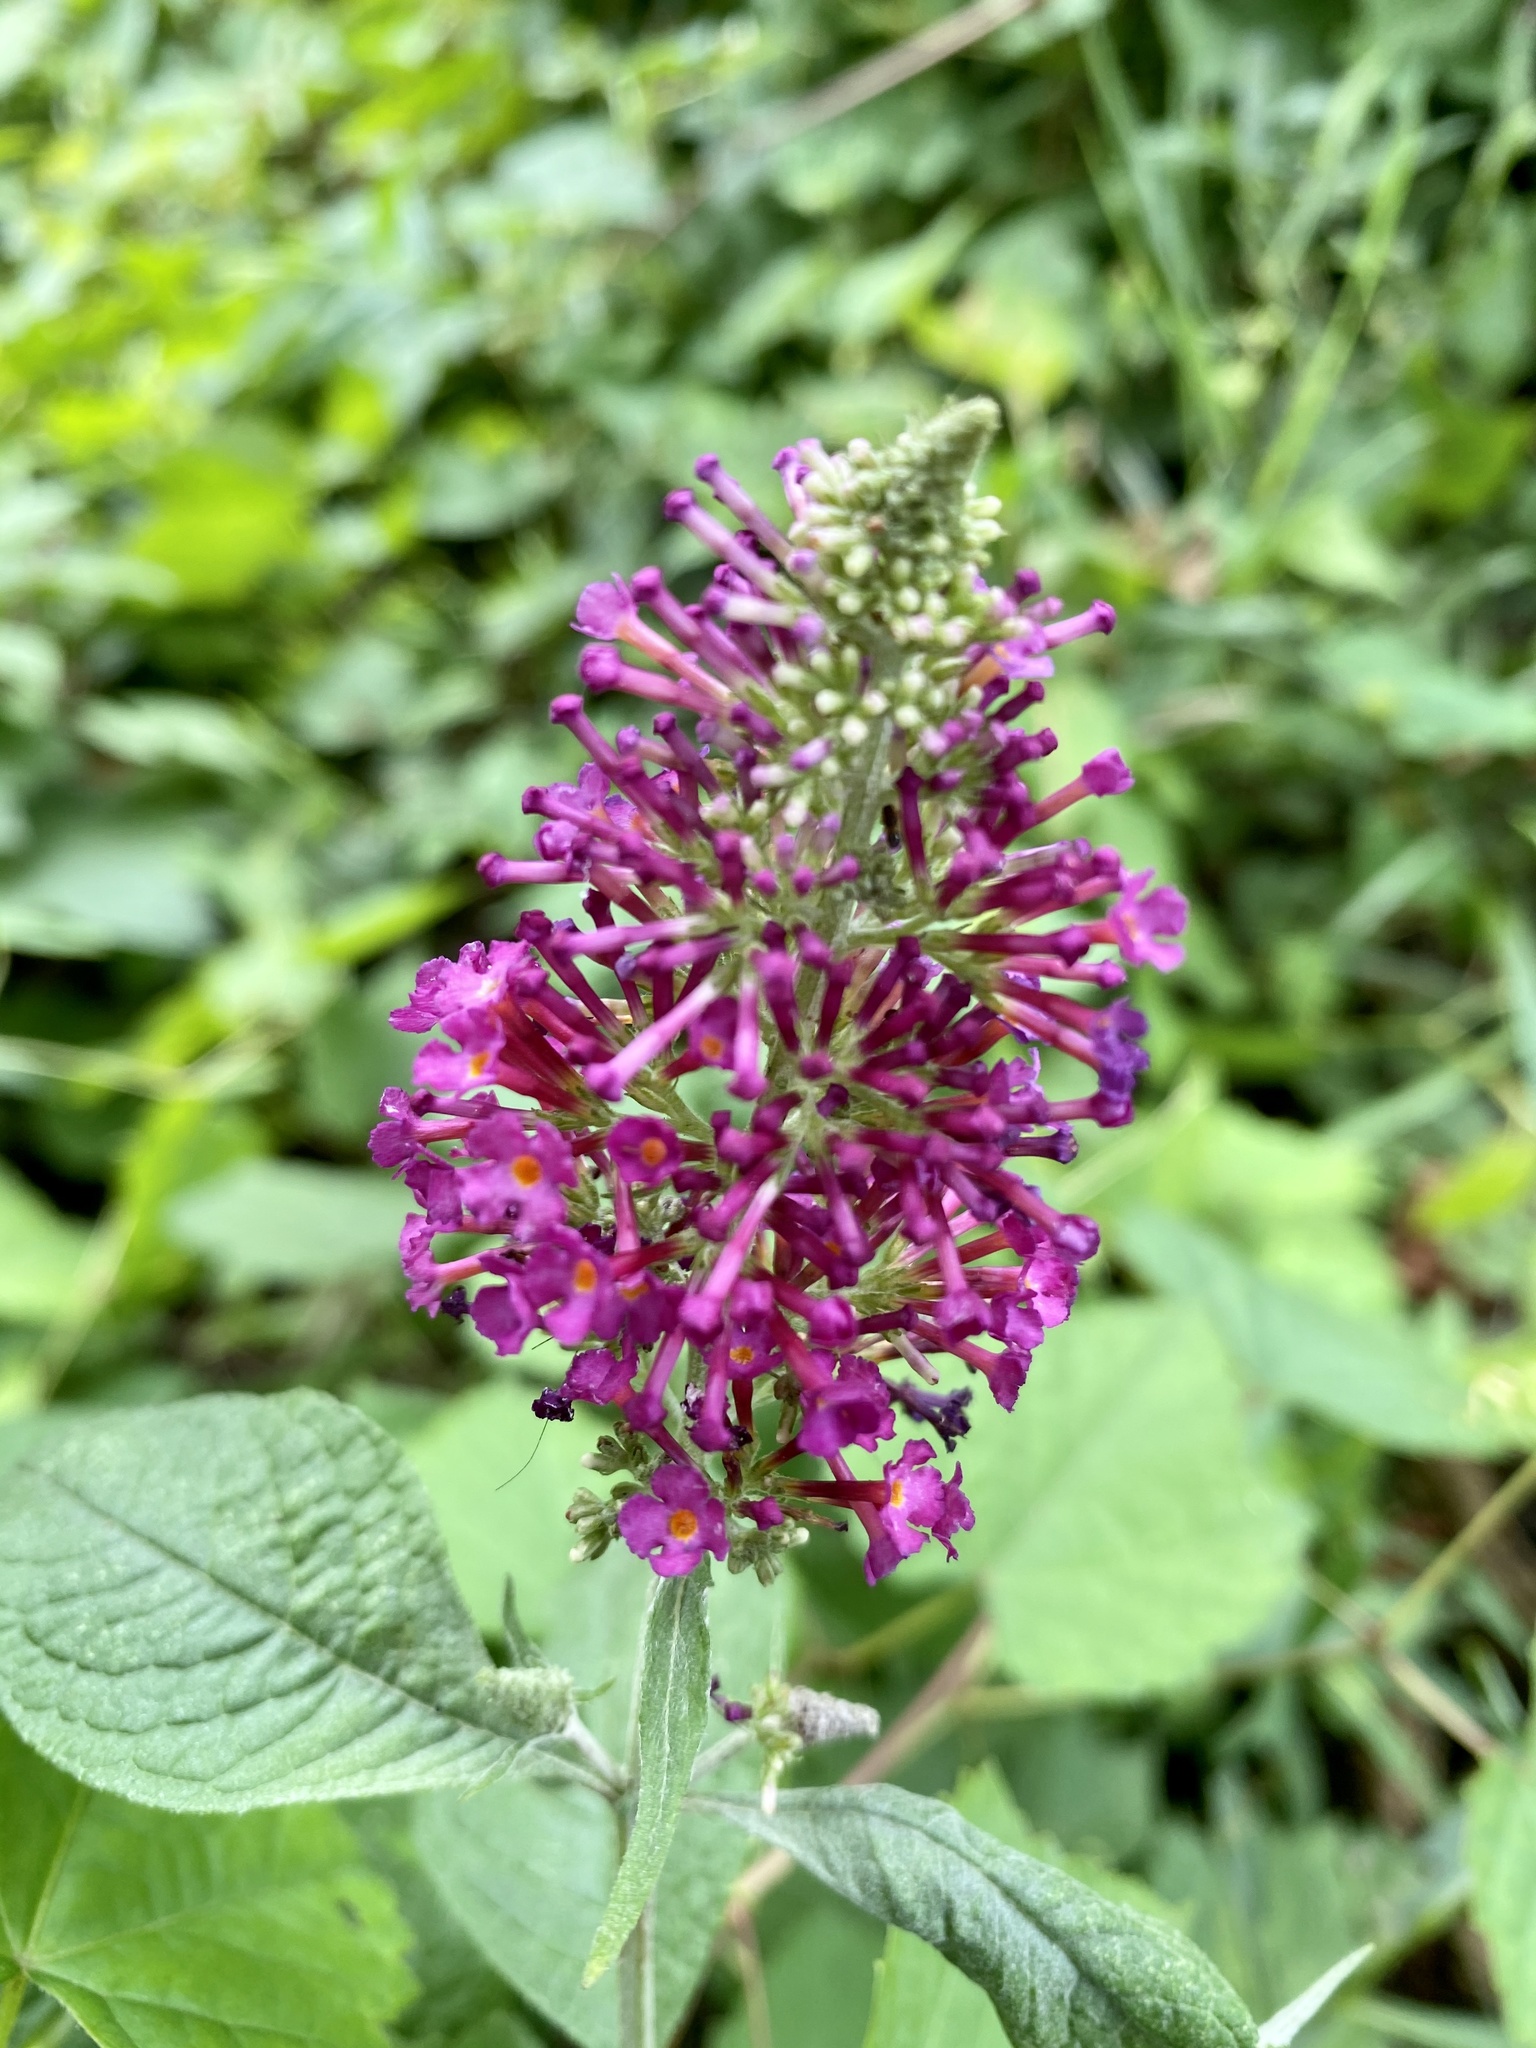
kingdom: Plantae
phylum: Tracheophyta
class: Magnoliopsida
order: Lamiales
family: Scrophulariaceae
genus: Buddleja
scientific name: Buddleja davidii
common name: Butterfly-bush
